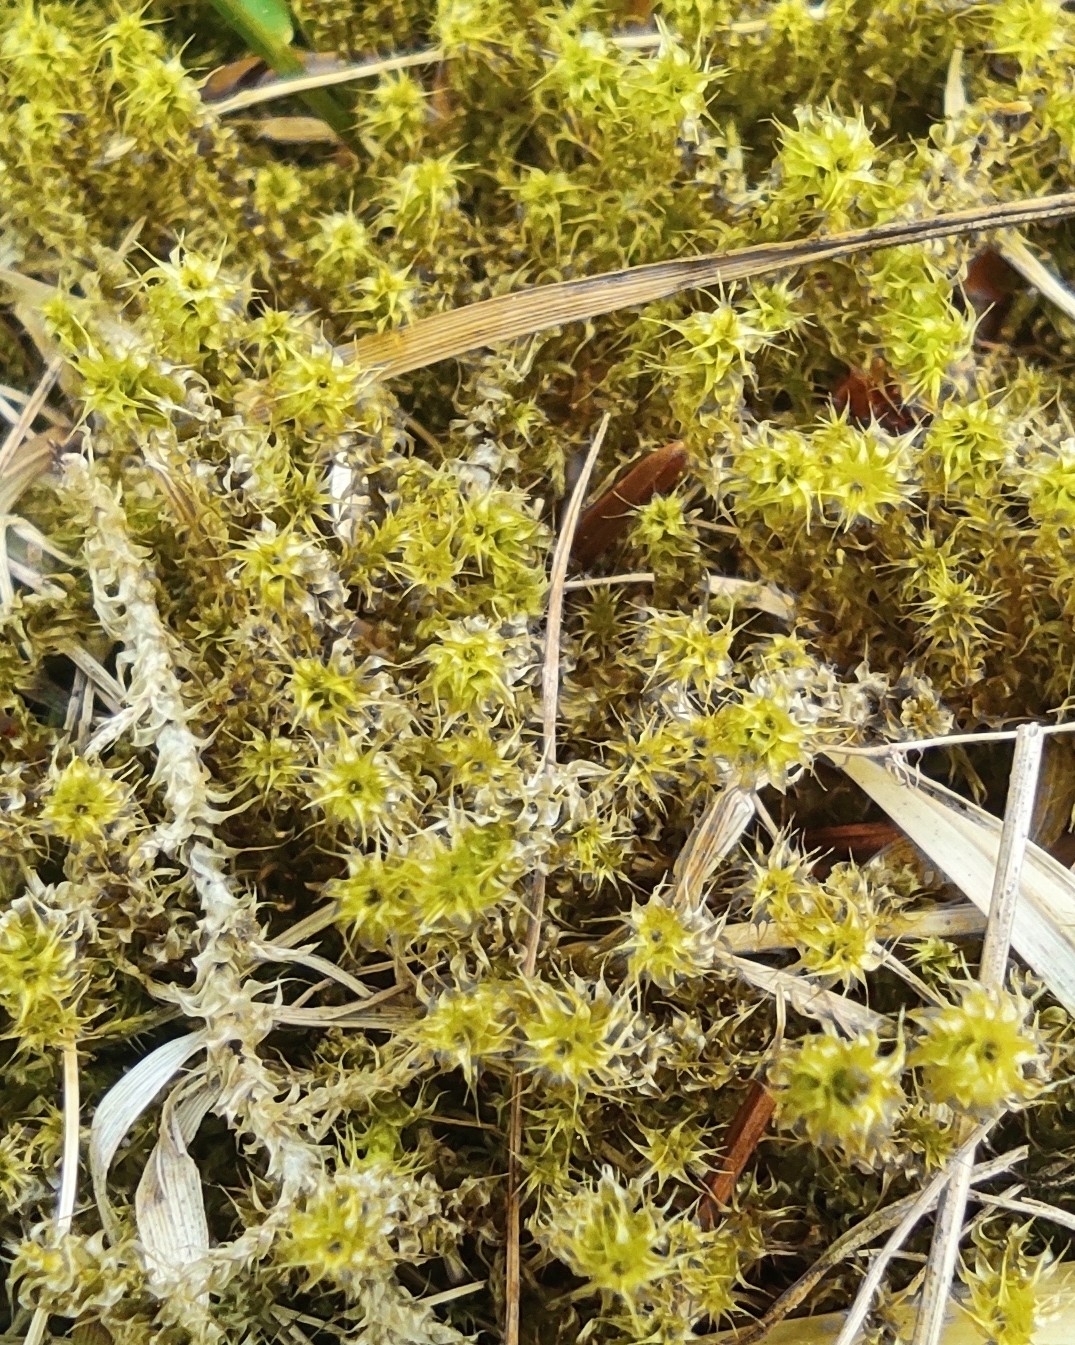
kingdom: Plantae
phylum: Bryophyta
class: Bryopsida
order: Hypnales
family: Hylocomiaceae
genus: Rhytidiadelphus
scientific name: Rhytidiadelphus squarrosus
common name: Springy turf-moss
